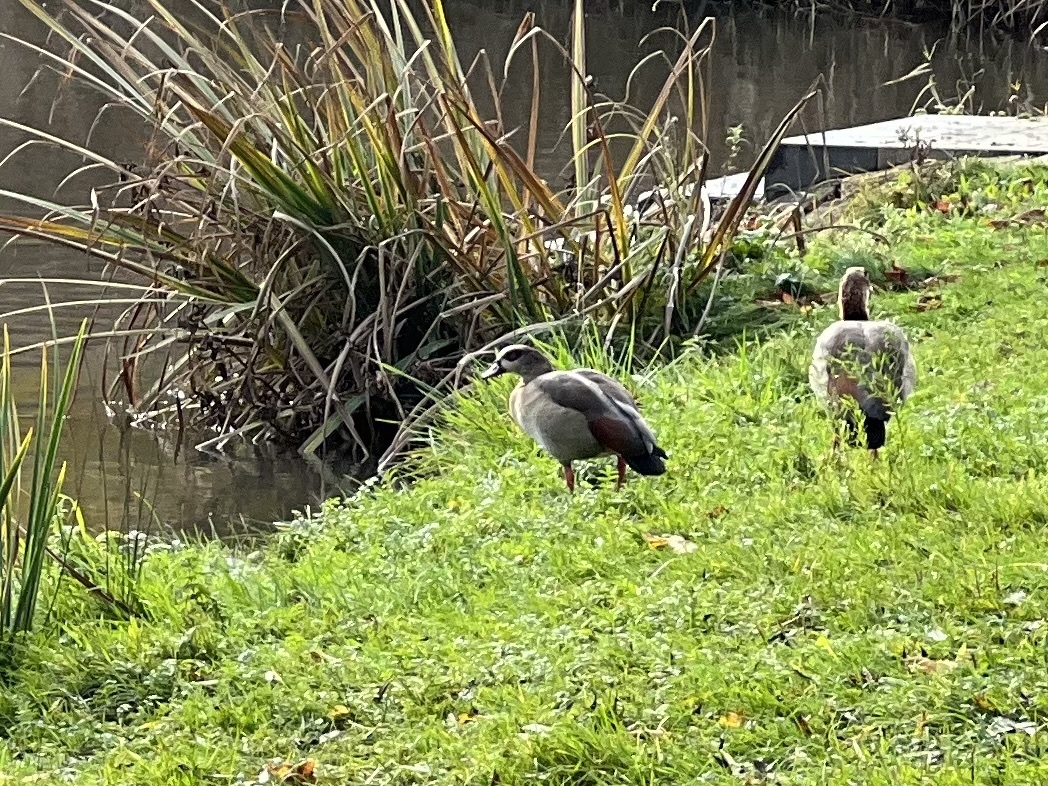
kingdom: Animalia
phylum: Chordata
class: Aves
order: Anseriformes
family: Anatidae
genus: Alopochen
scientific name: Alopochen aegyptiaca
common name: Egyptian goose
